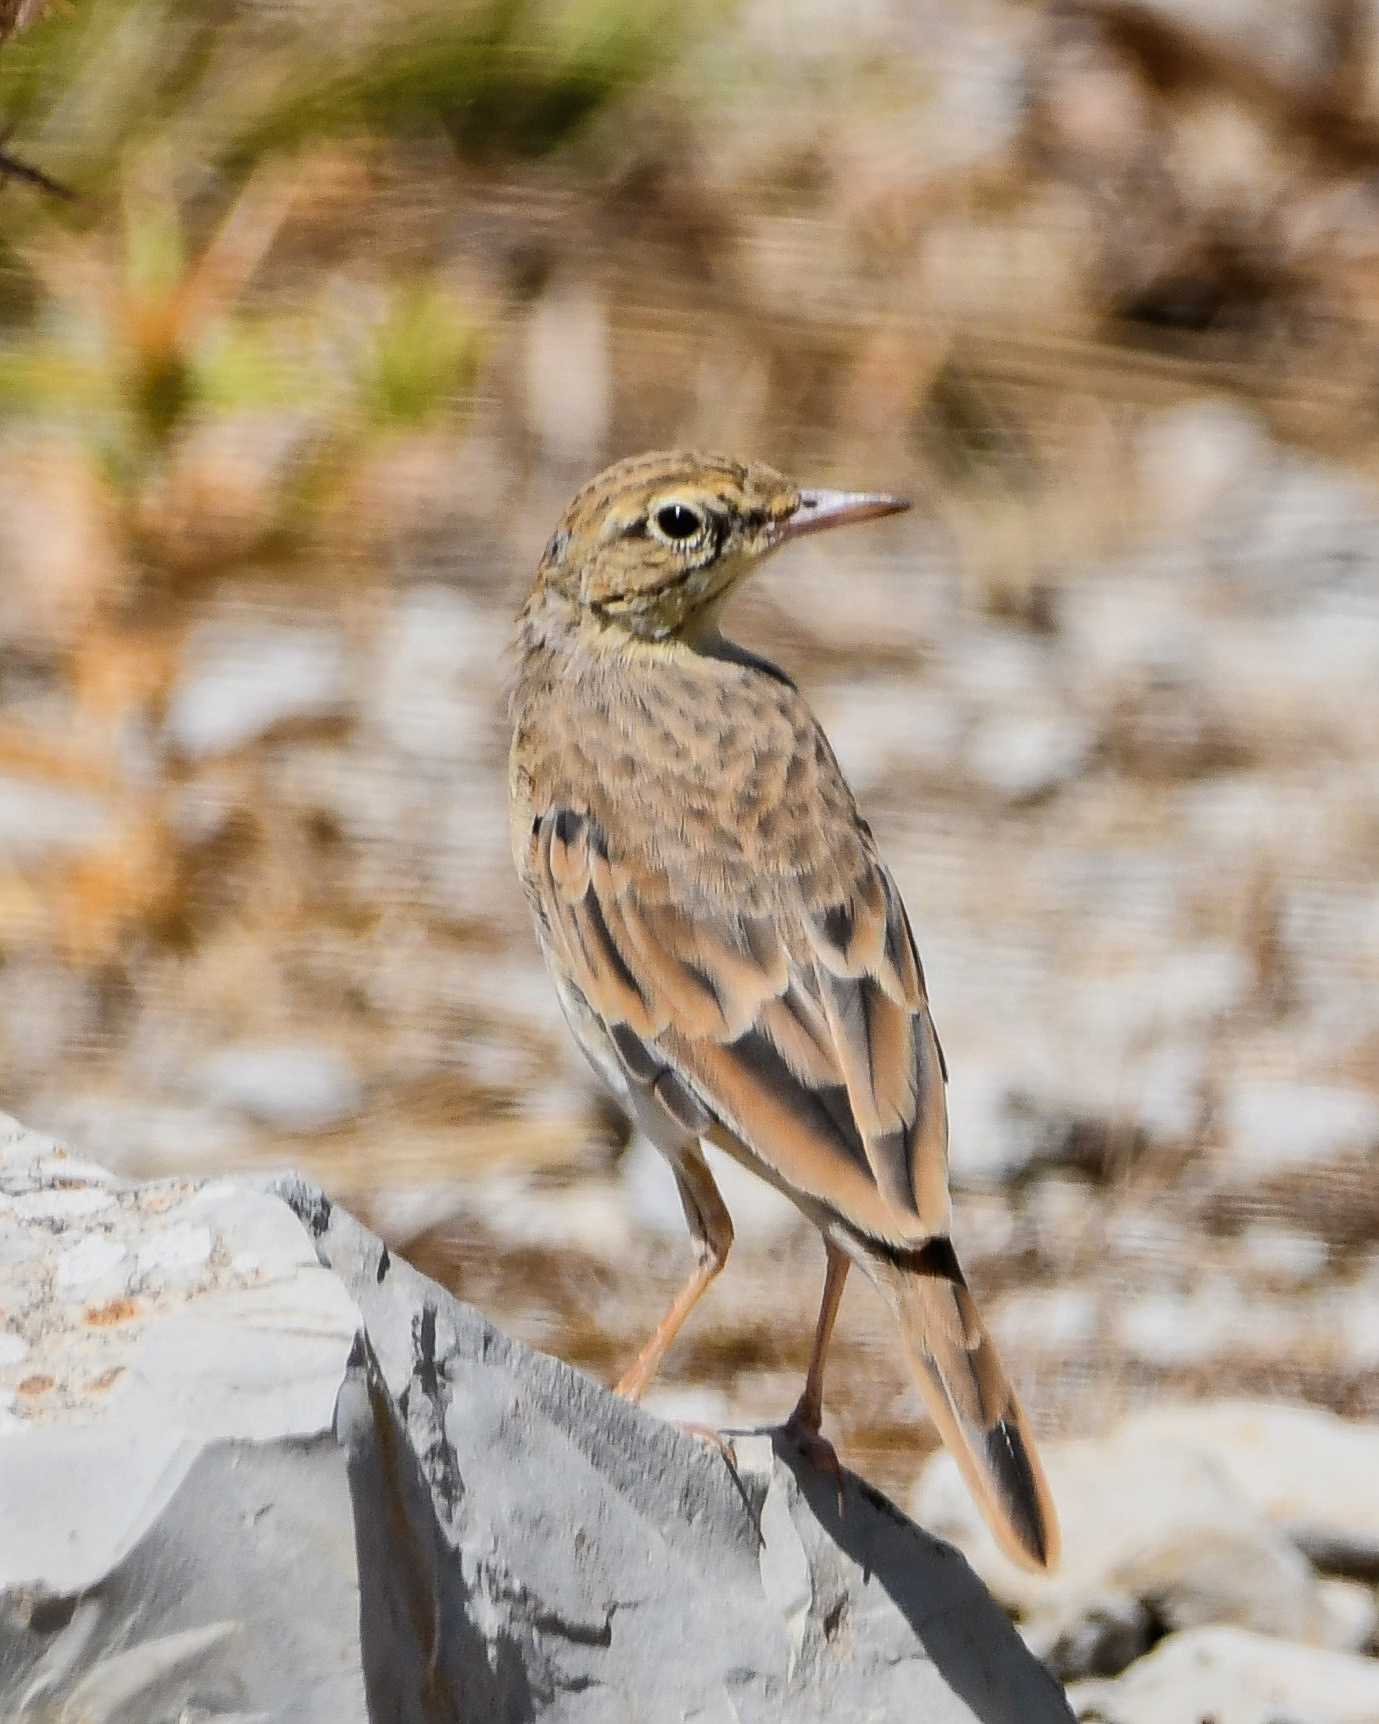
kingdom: Animalia
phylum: Chordata
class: Aves
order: Passeriformes
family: Motacillidae
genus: Anthus
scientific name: Anthus campestris
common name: Tawny pipit
